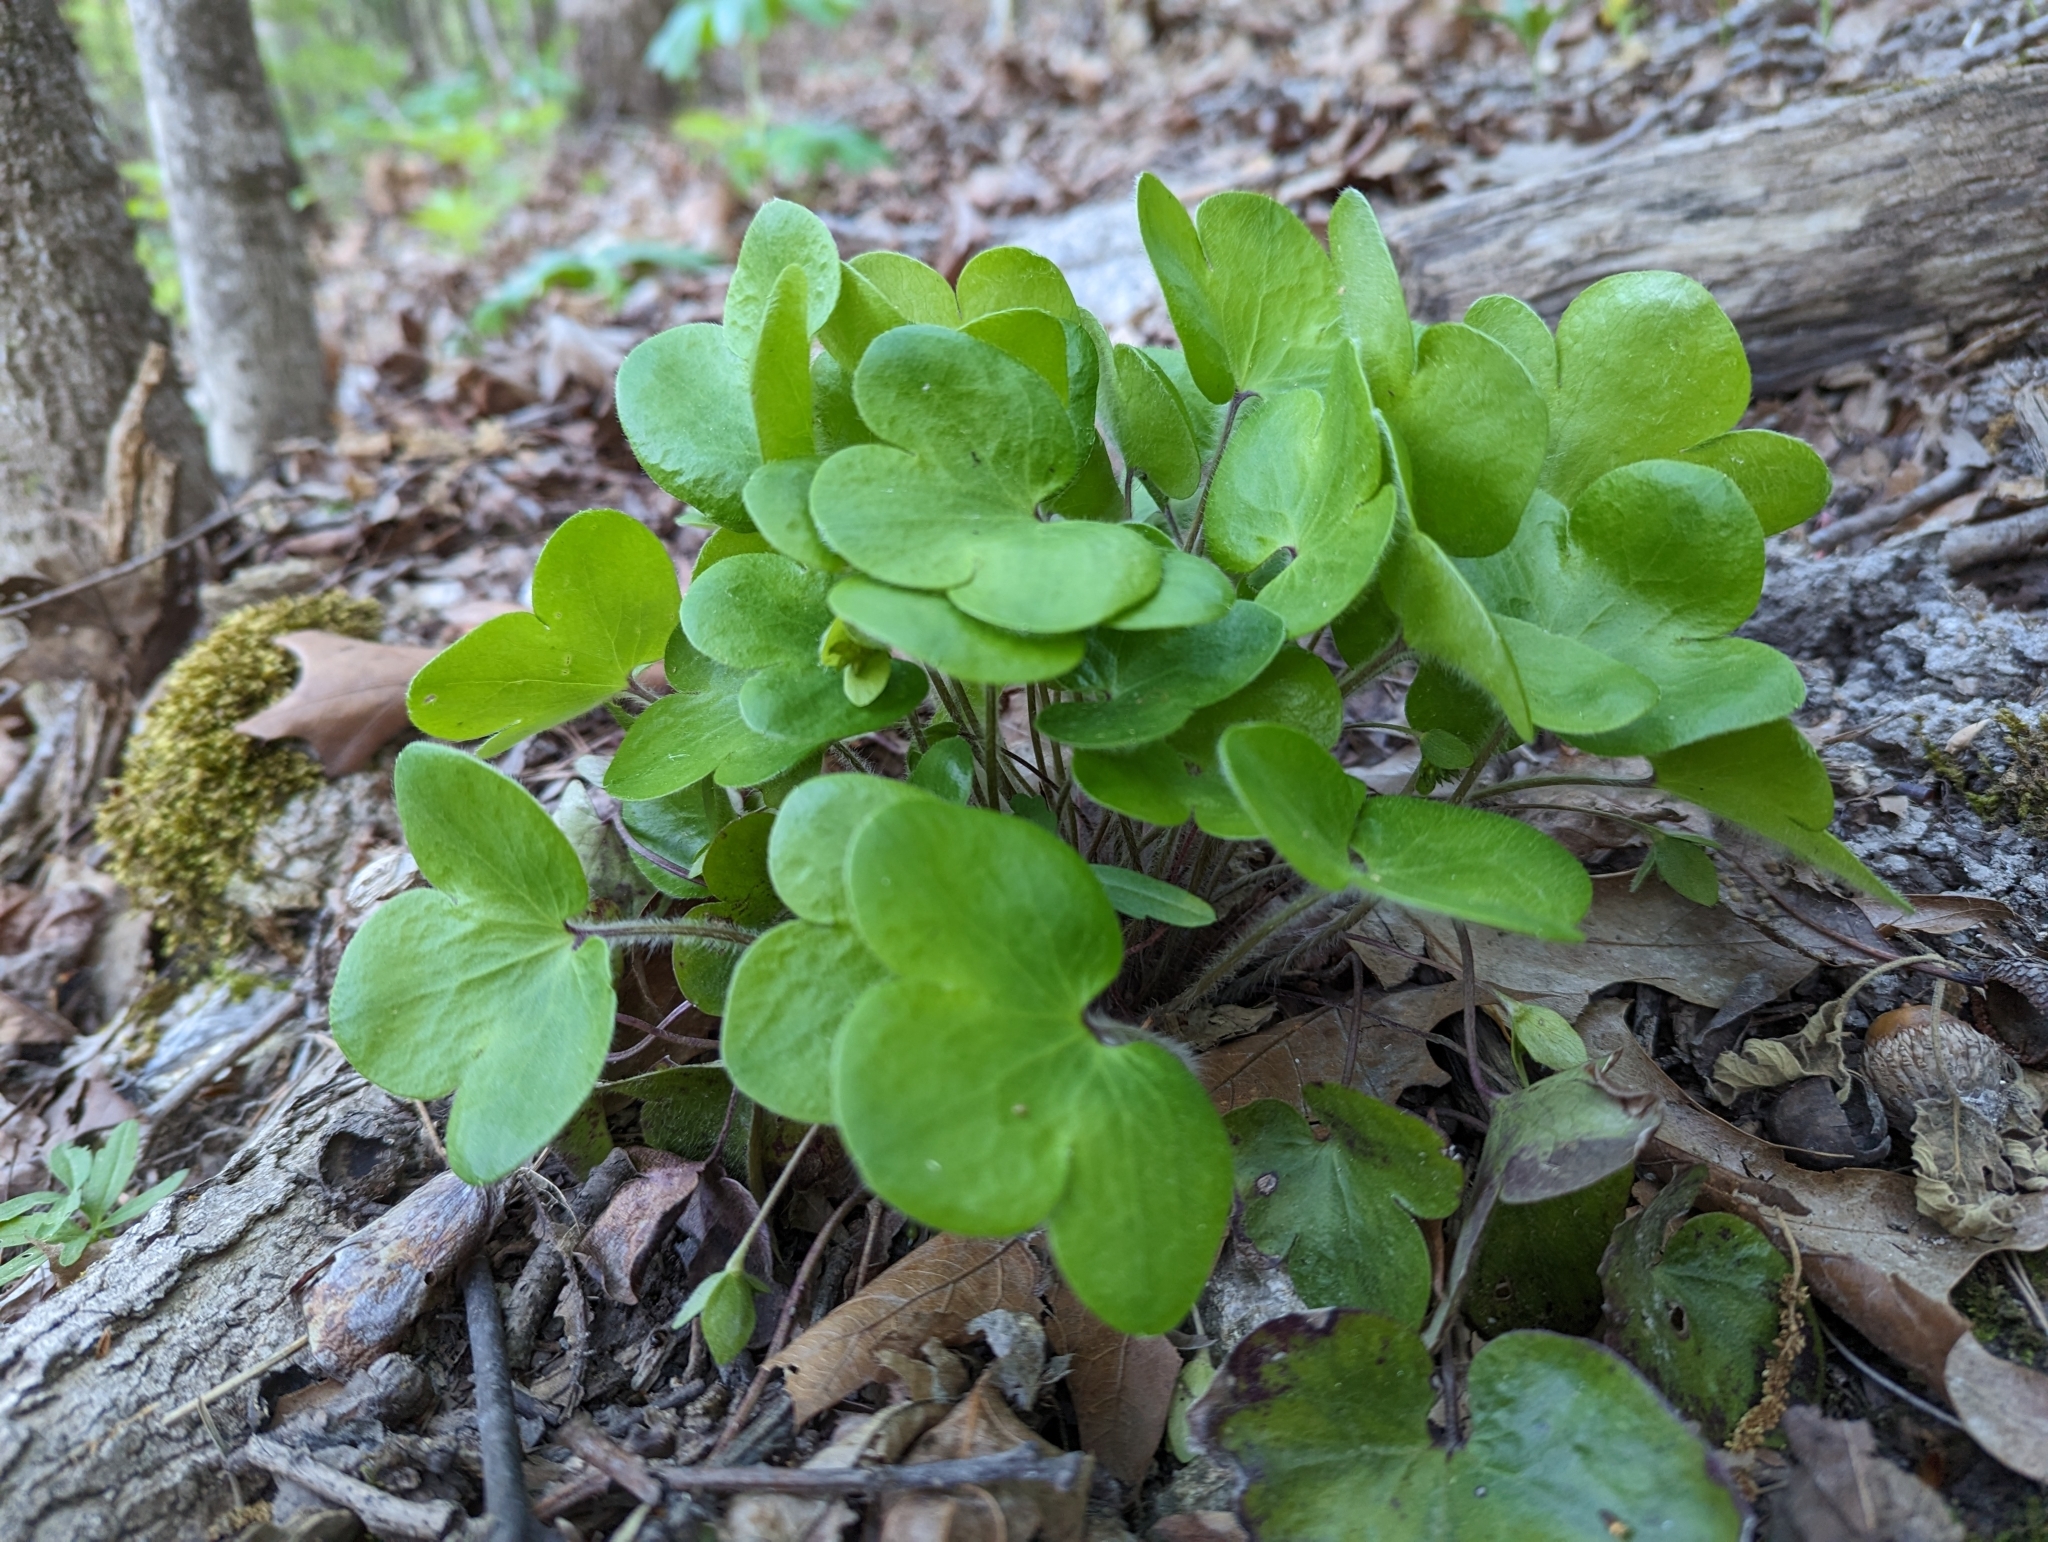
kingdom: Plantae
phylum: Tracheophyta
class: Magnoliopsida
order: Ranunculales
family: Ranunculaceae
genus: Hepatica
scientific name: Hepatica americana
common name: American hepatica
